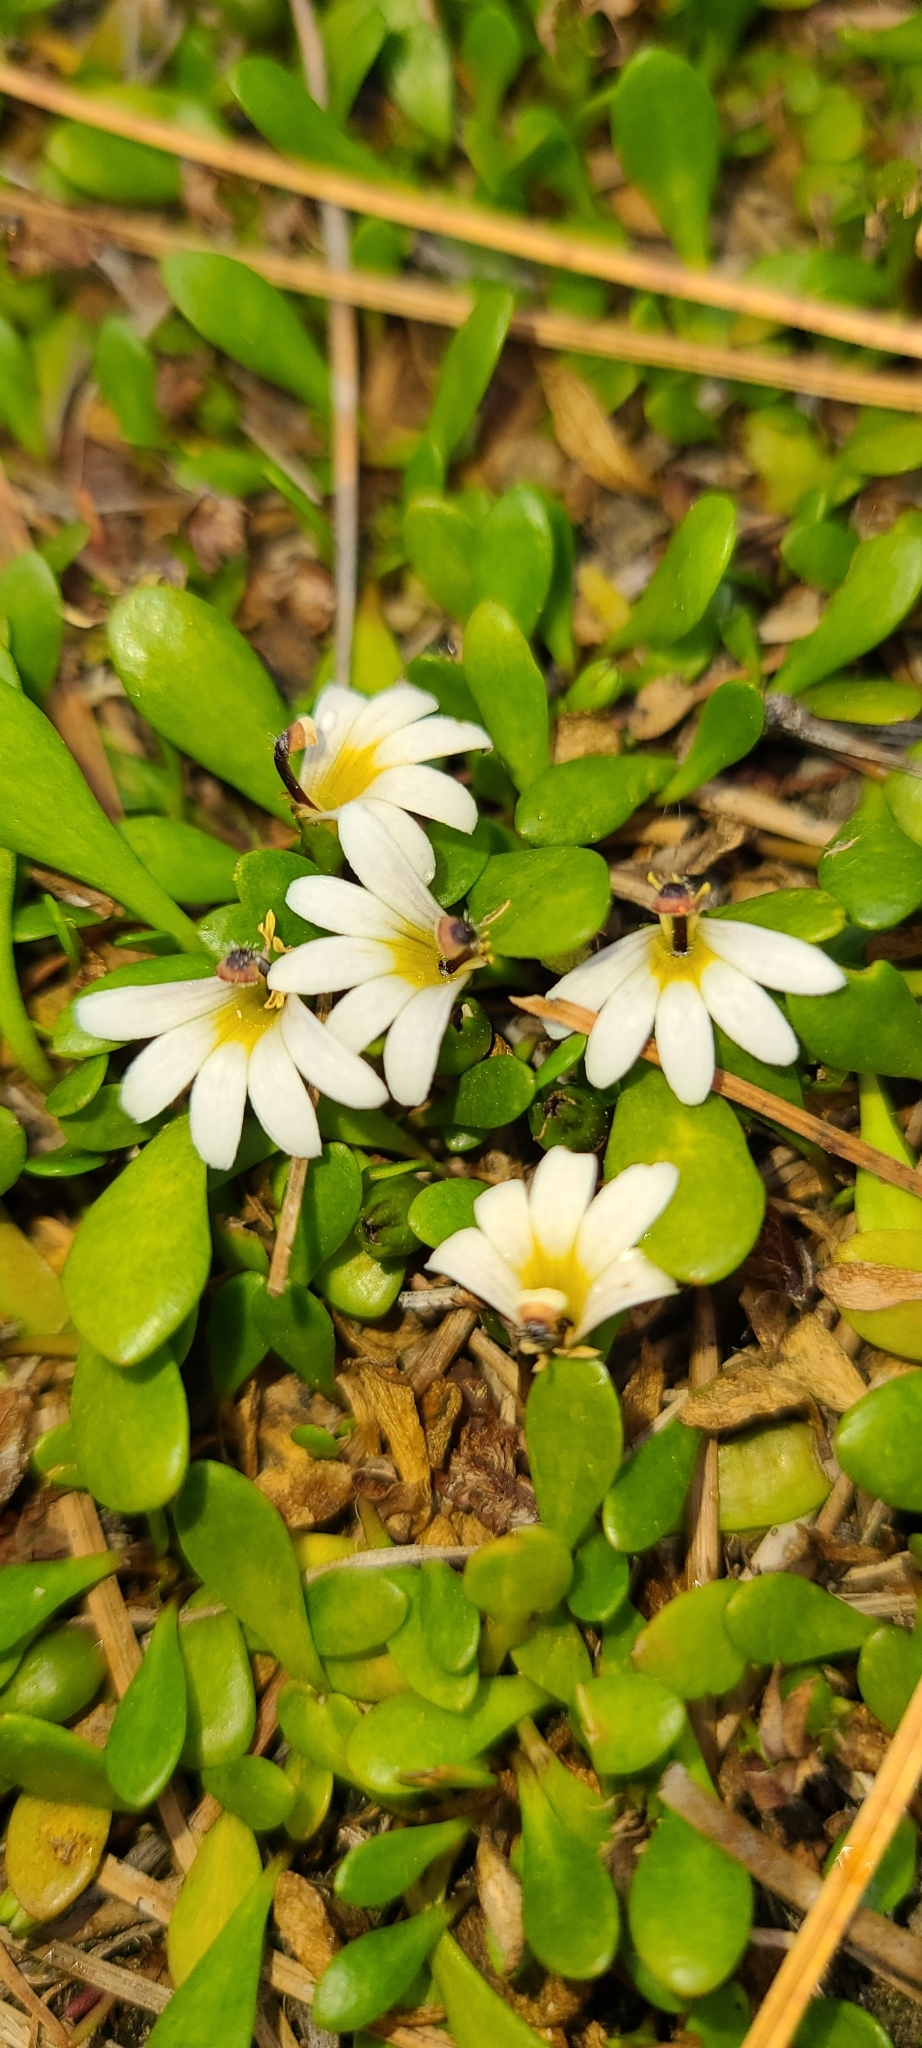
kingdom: Plantae
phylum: Tracheophyta
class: Magnoliopsida
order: Asterales
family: Goodeniaceae
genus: Goodenia
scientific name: Goodenia radicans
